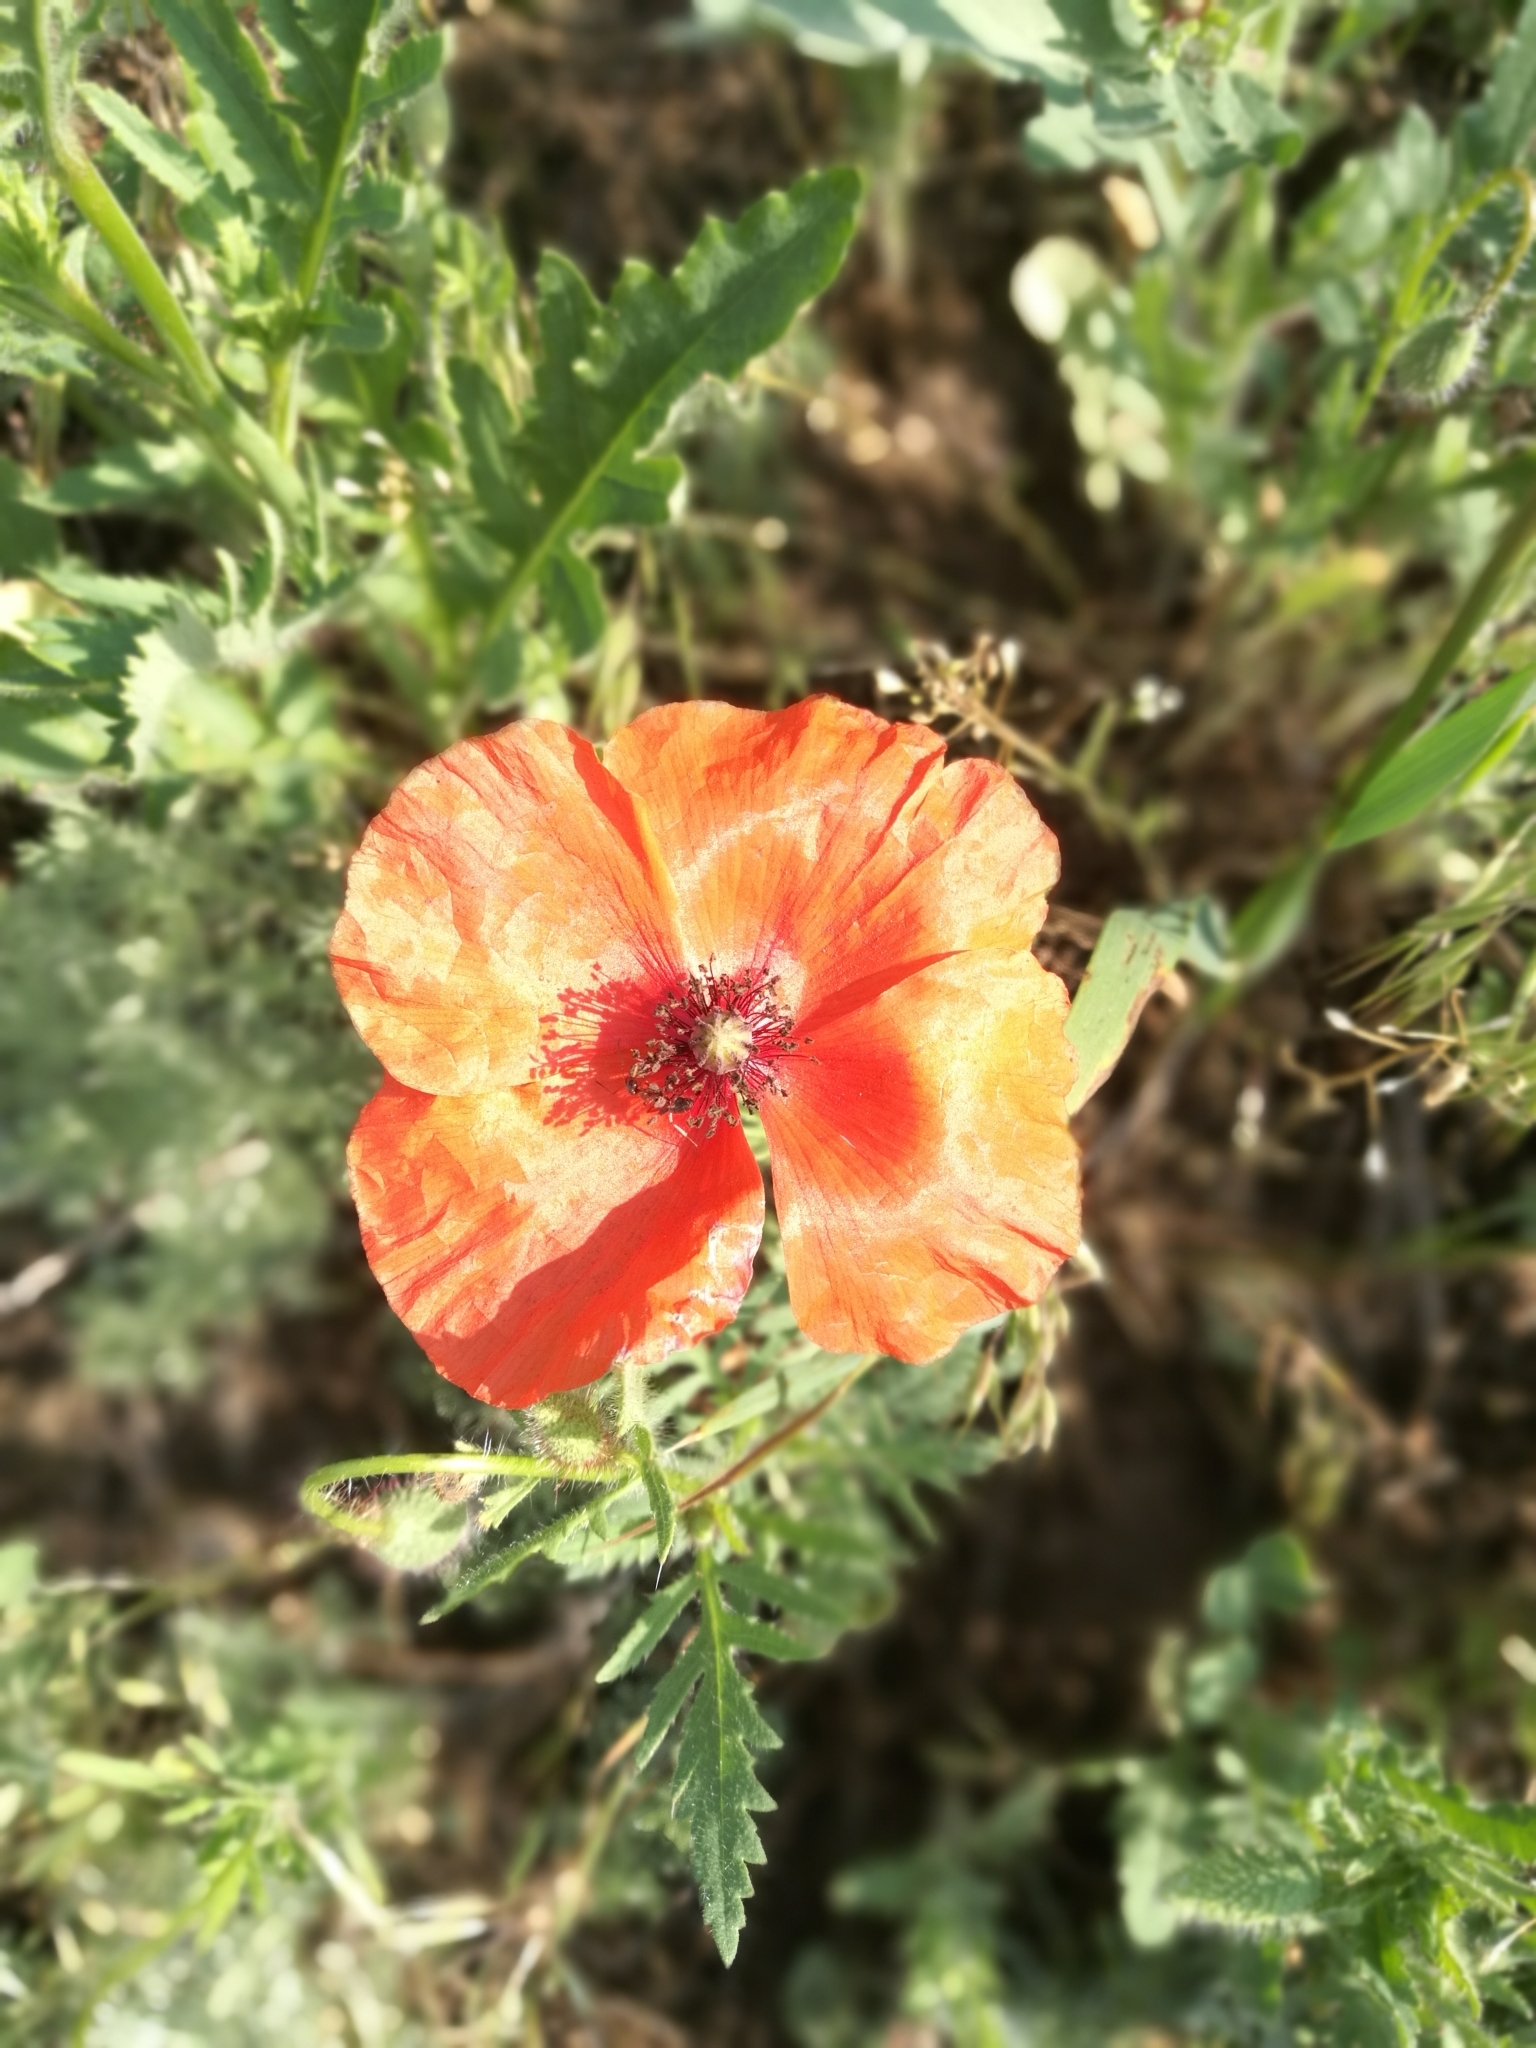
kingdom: Plantae
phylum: Tracheophyta
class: Magnoliopsida
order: Ranunculales
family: Papaveraceae
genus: Papaver
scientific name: Papaver rhoeas
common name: Corn poppy
